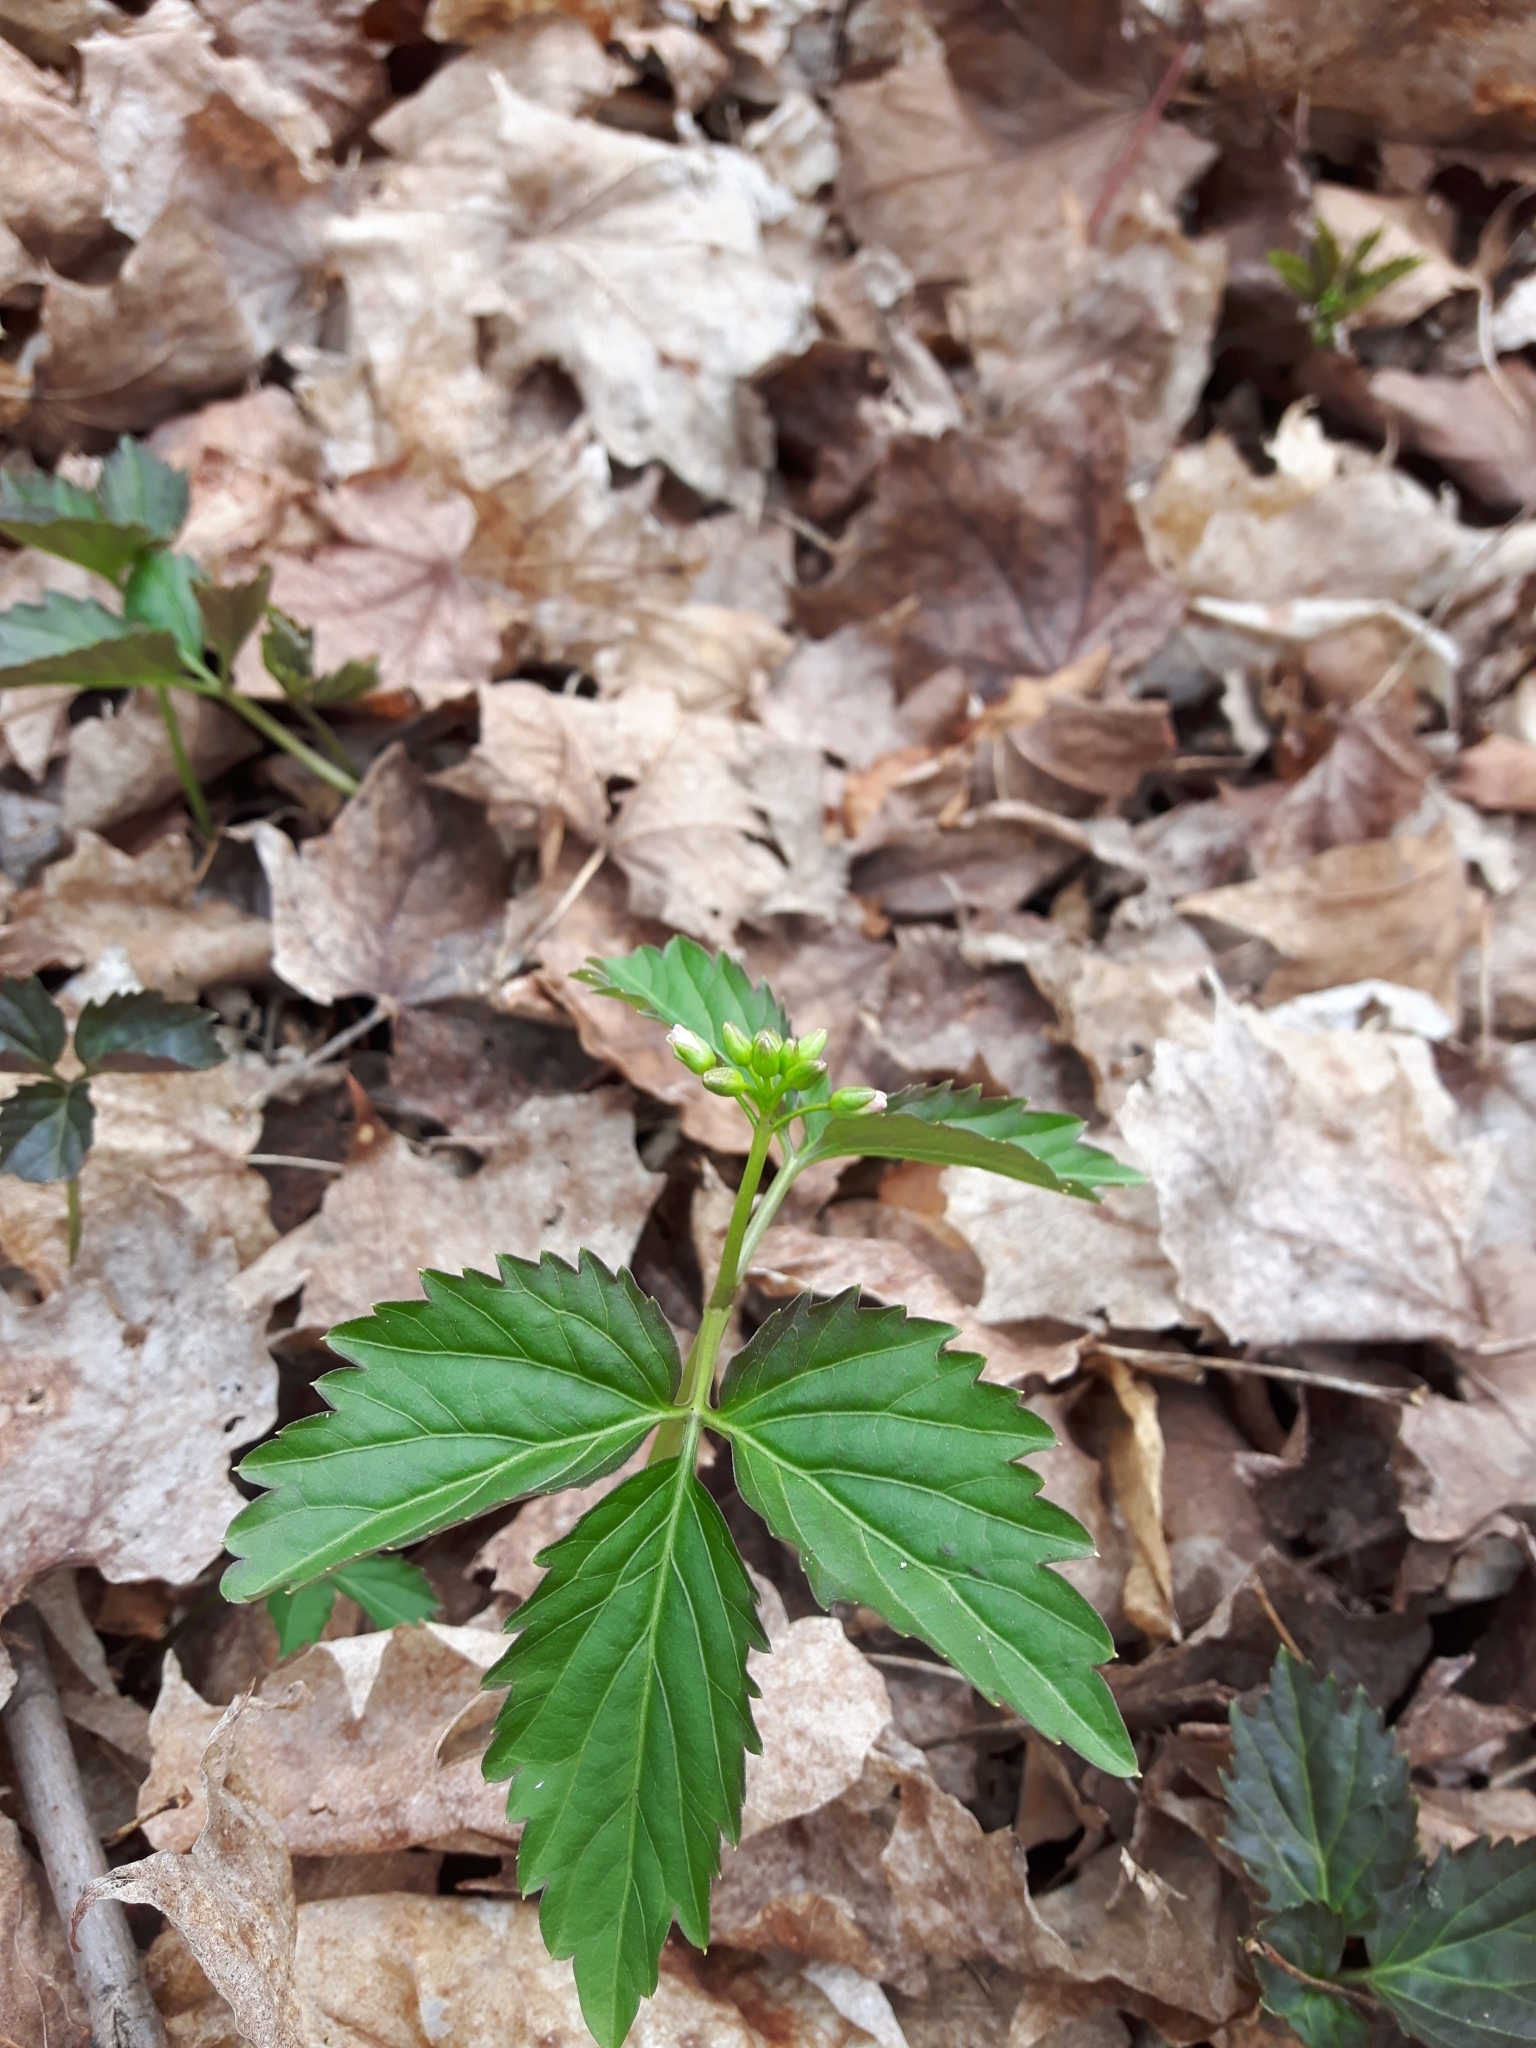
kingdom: Plantae
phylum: Tracheophyta
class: Magnoliopsida
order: Brassicales
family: Brassicaceae
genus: Cardamine
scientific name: Cardamine diphylla
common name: Broad-leaved toothwort
